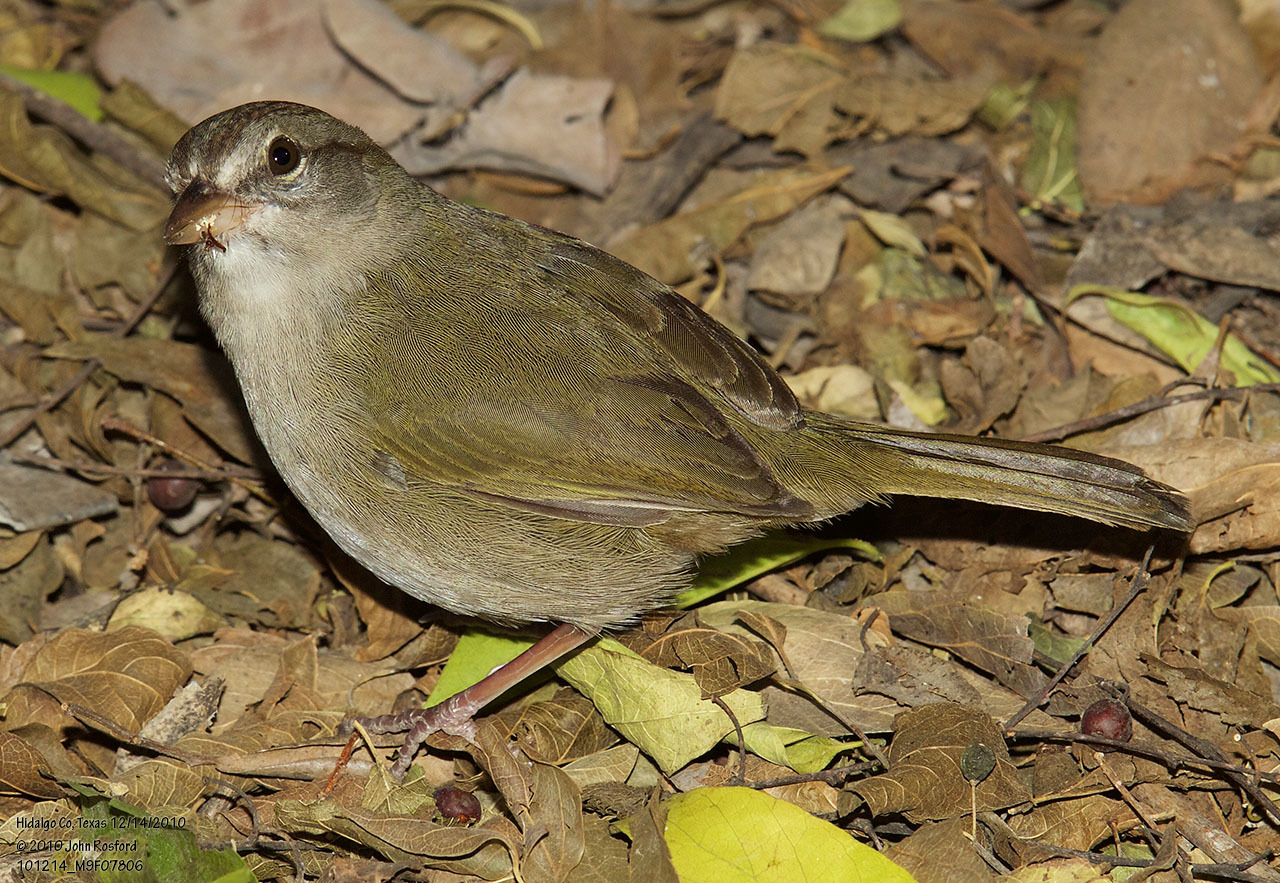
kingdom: Animalia
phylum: Chordata
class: Aves
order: Passeriformes
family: Passerellidae
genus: Arremonops
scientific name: Arremonops rufivirgatus
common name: Olive sparrow
